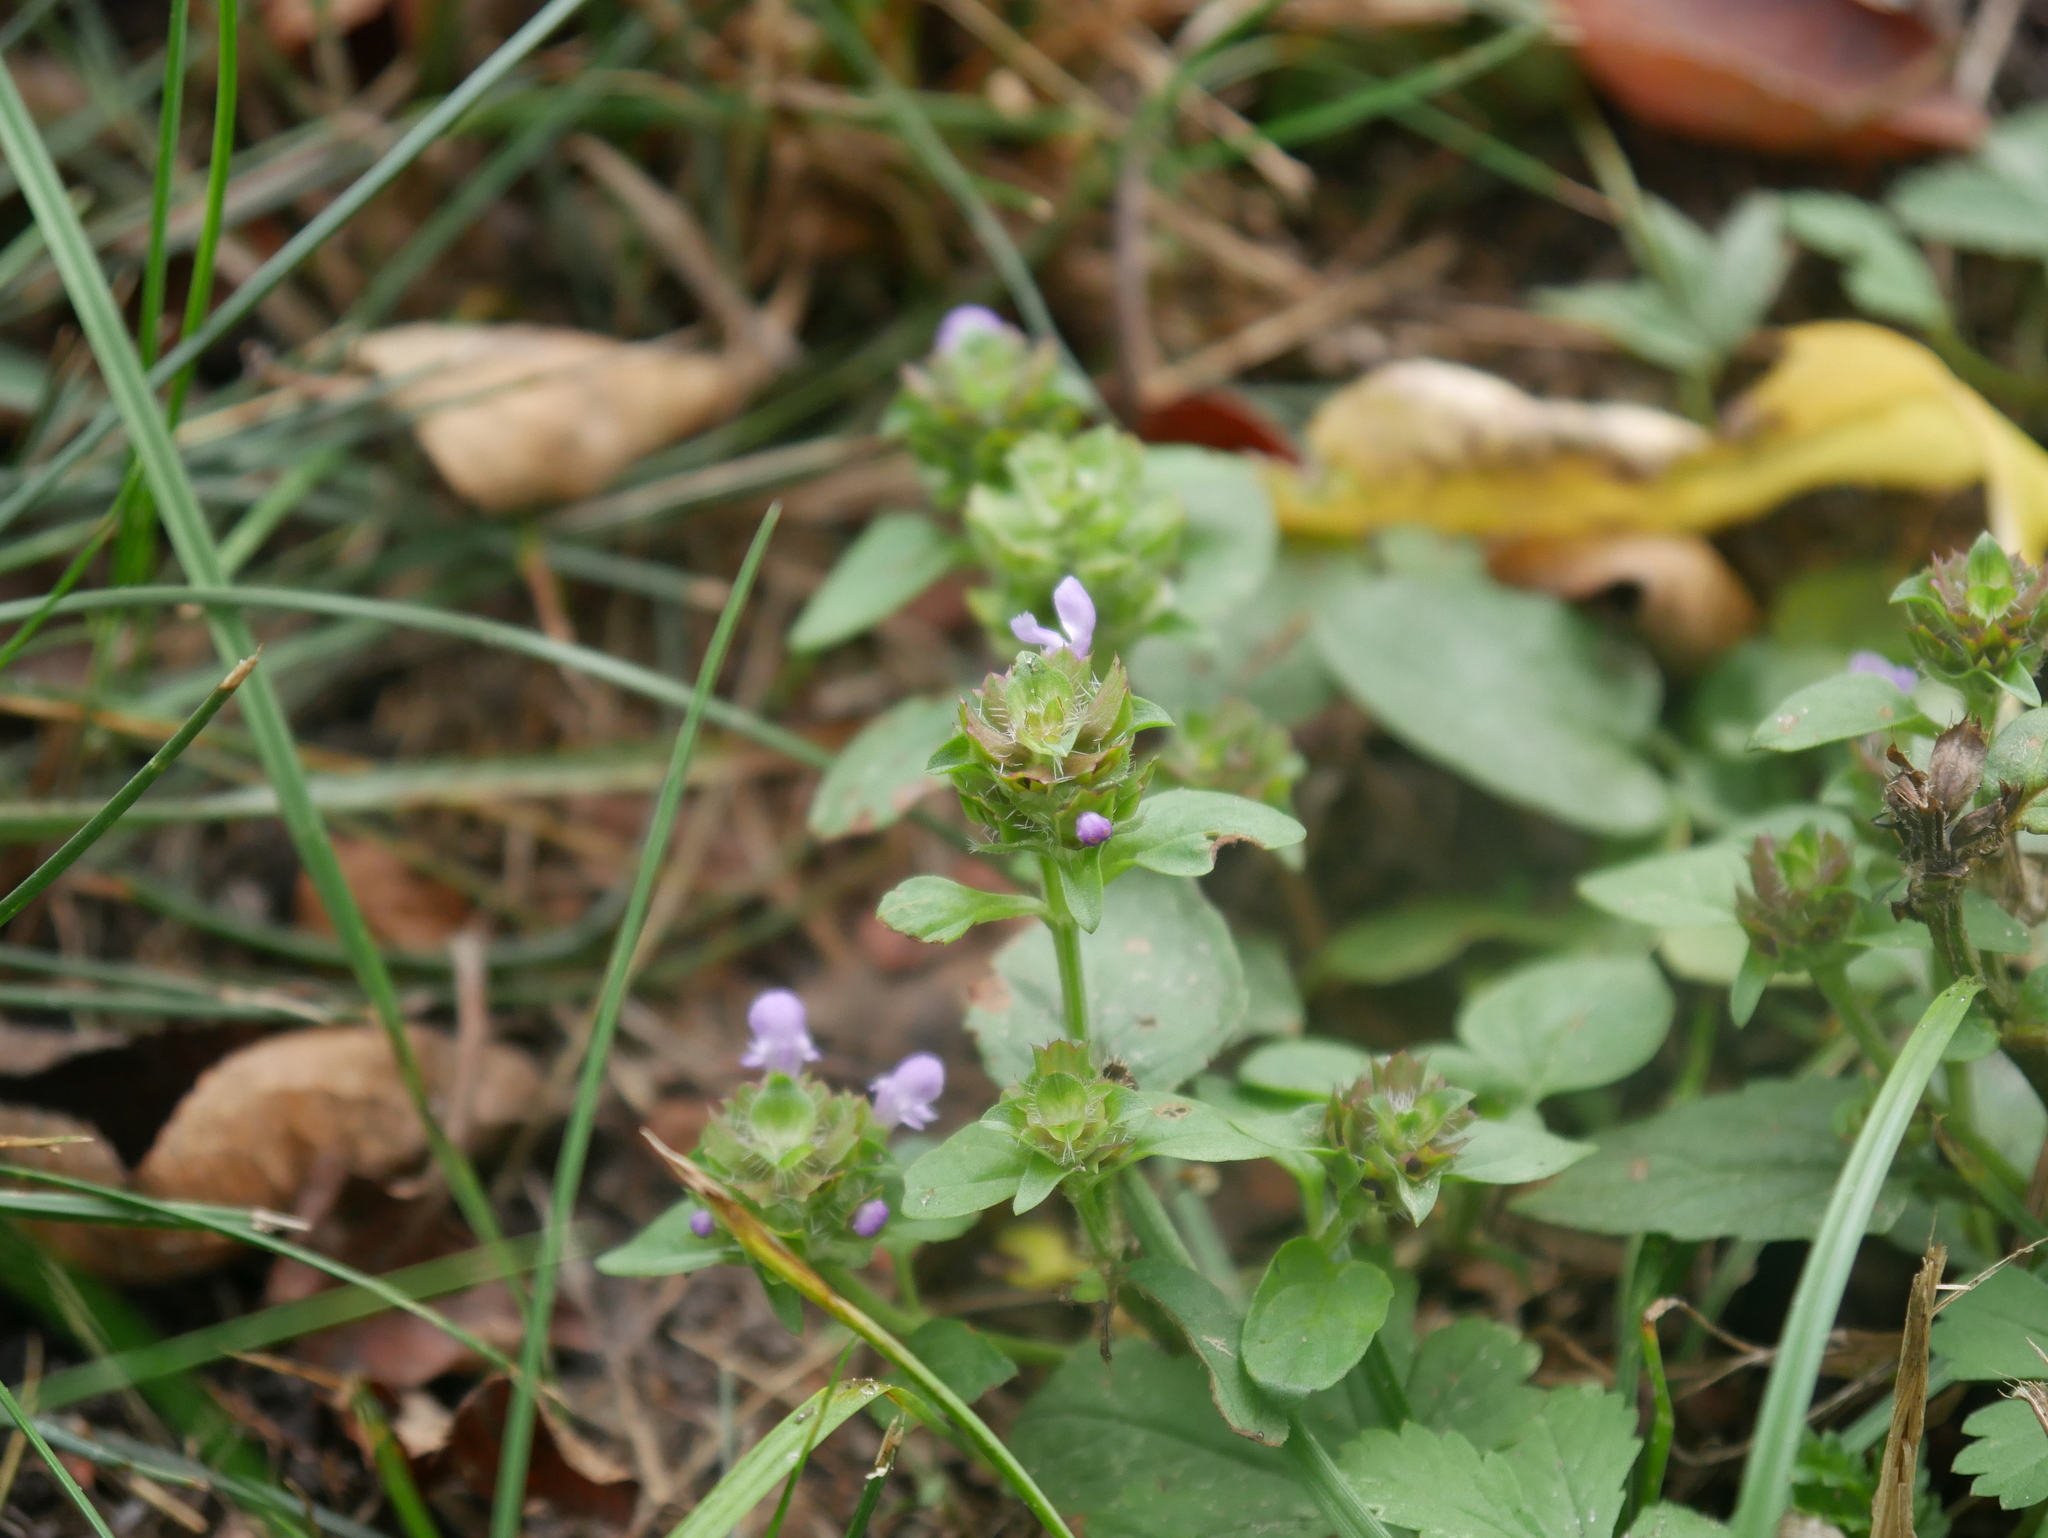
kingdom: Plantae
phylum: Tracheophyta
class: Magnoliopsida
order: Lamiales
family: Lamiaceae
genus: Prunella
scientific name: Prunella vulgaris
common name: Heal-all
